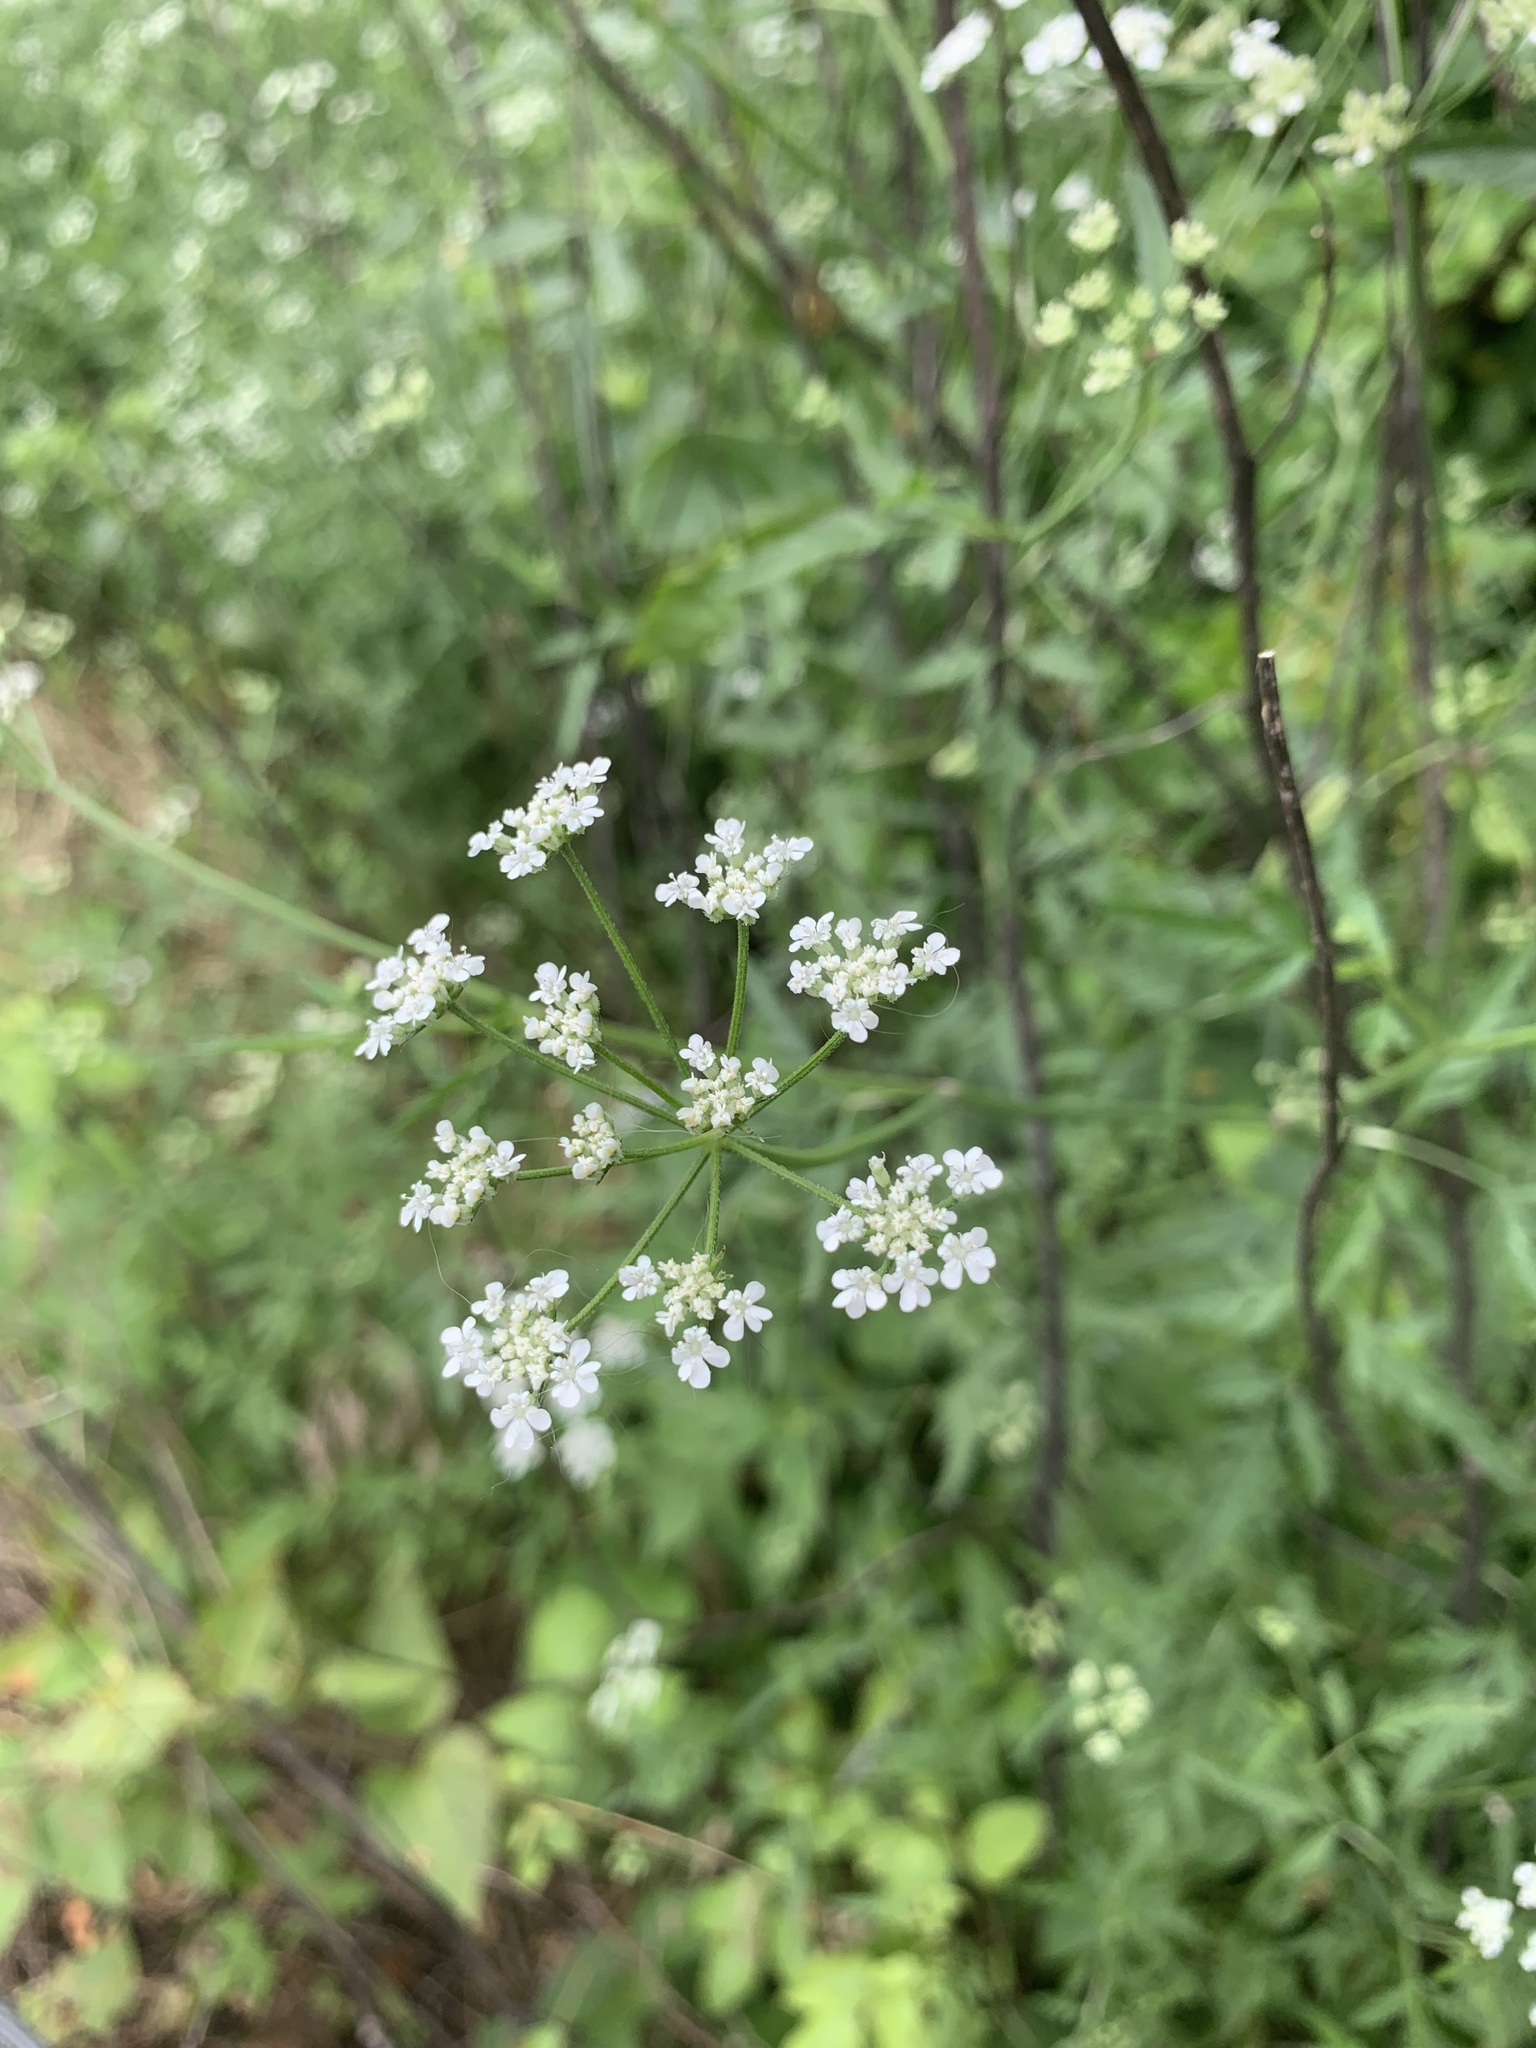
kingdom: Plantae
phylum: Tracheophyta
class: Magnoliopsida
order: Apiales
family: Apiaceae
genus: Torilis
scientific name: Torilis arvensis
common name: Spreading hedge-parsley
